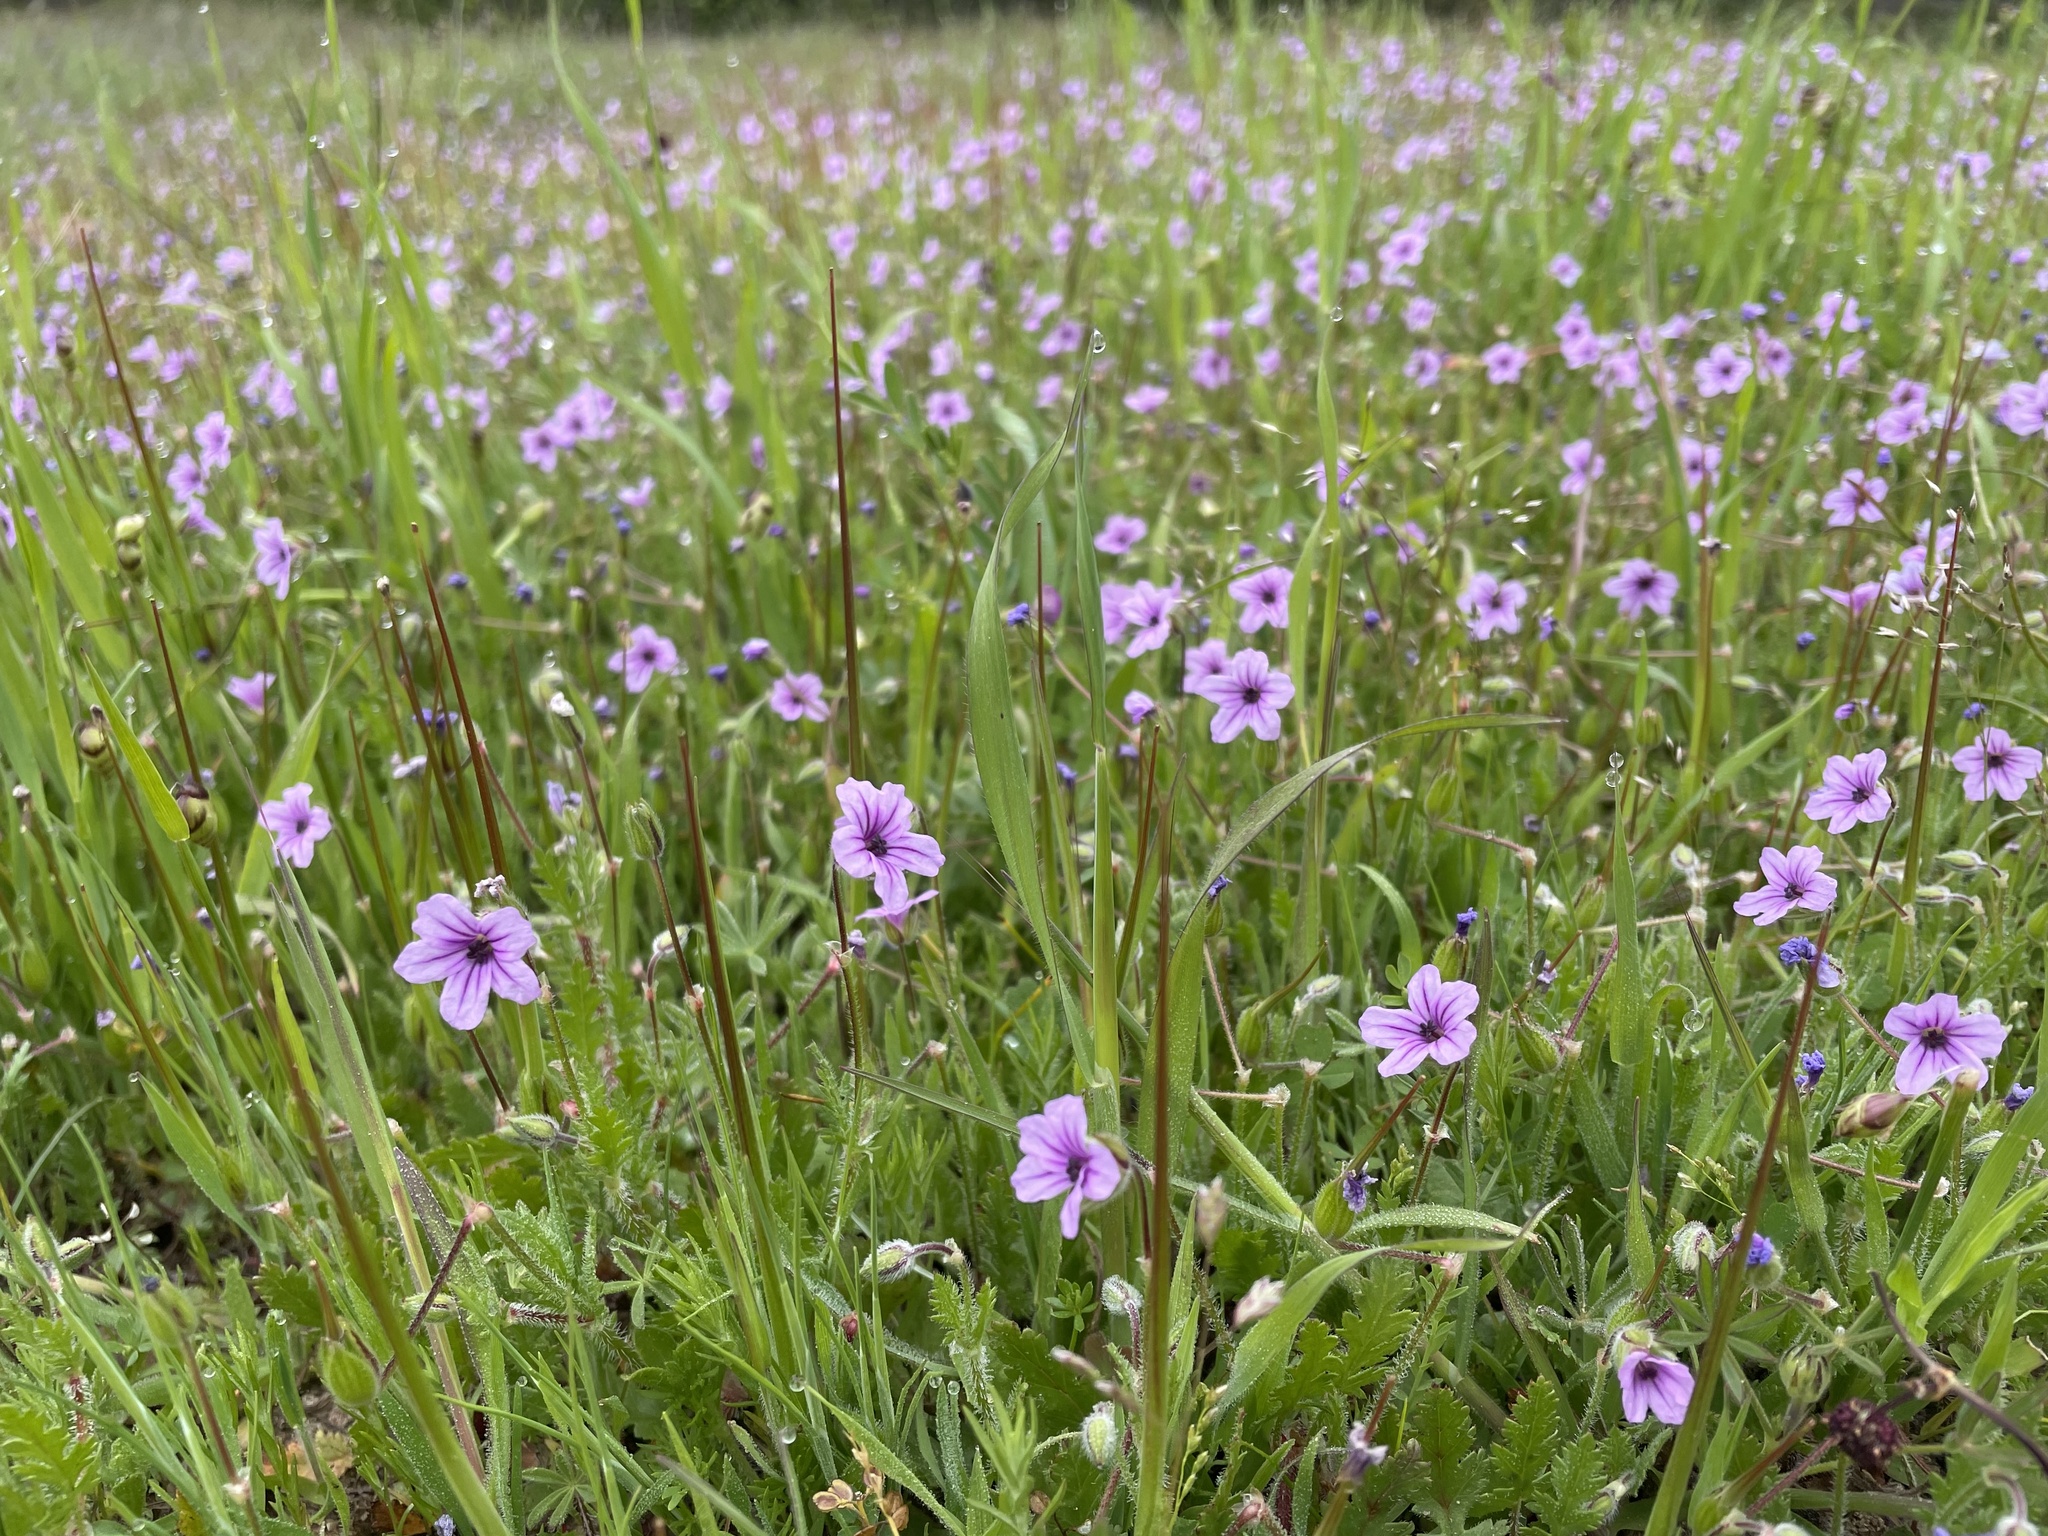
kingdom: Plantae
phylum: Tracheophyta
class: Magnoliopsida
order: Geraniales
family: Geraniaceae
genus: Erodium
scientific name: Erodium botrys
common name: Mediterranean stork's-bill
